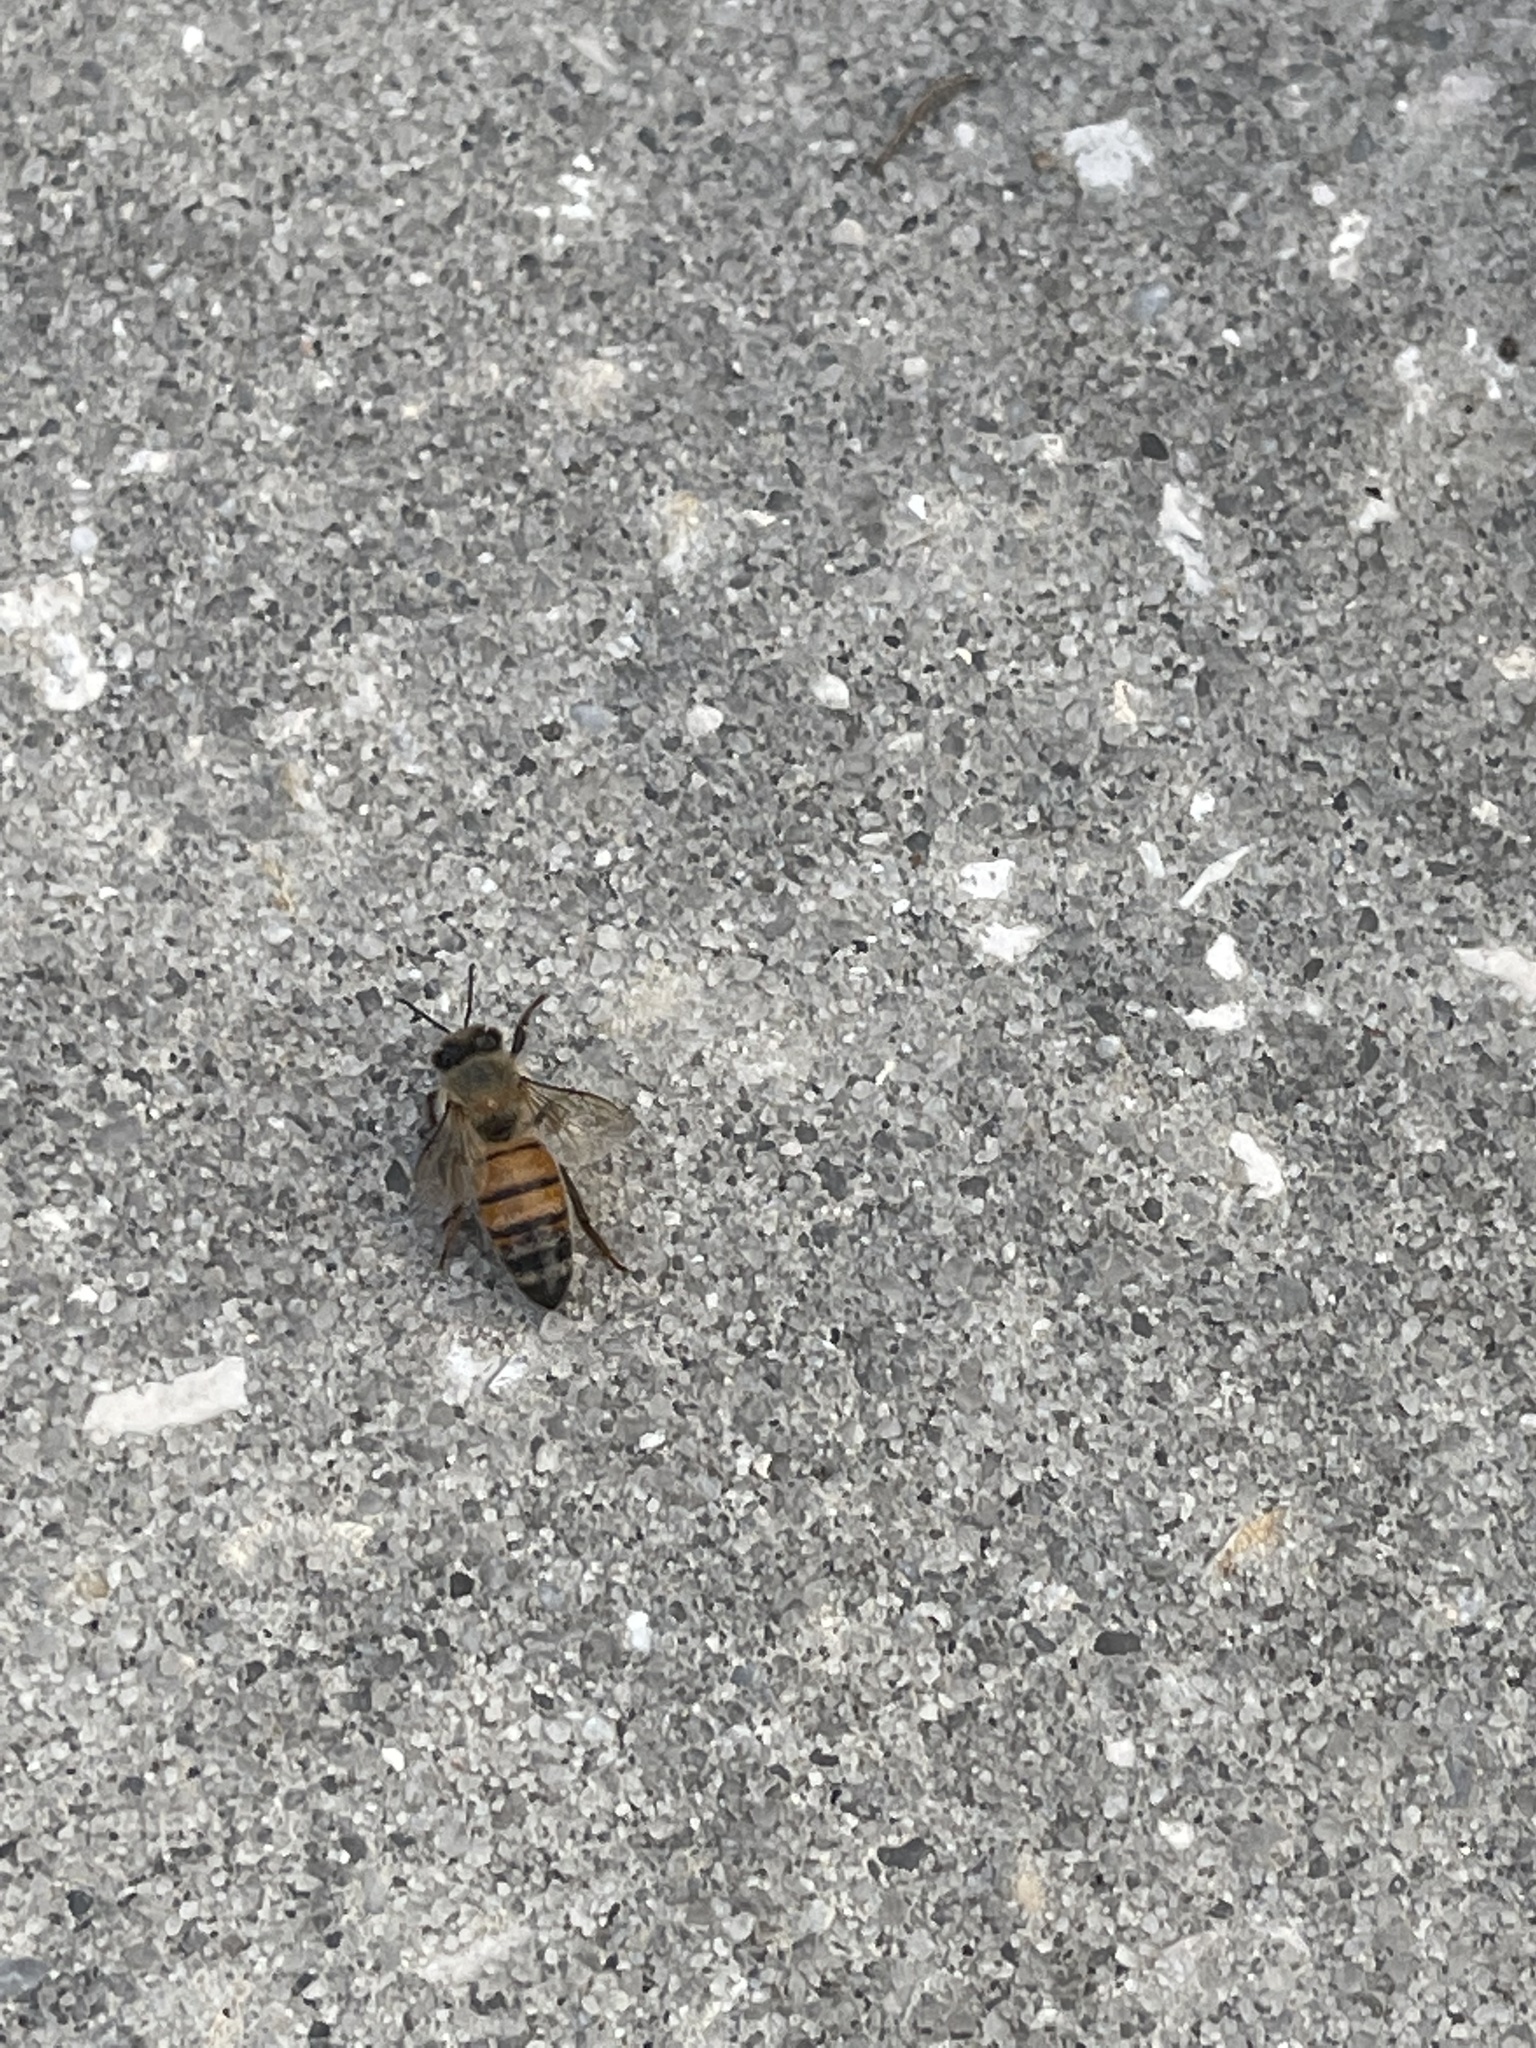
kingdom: Animalia
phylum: Arthropoda
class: Insecta
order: Hymenoptera
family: Apidae
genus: Apis
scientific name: Apis mellifera
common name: Honey bee
